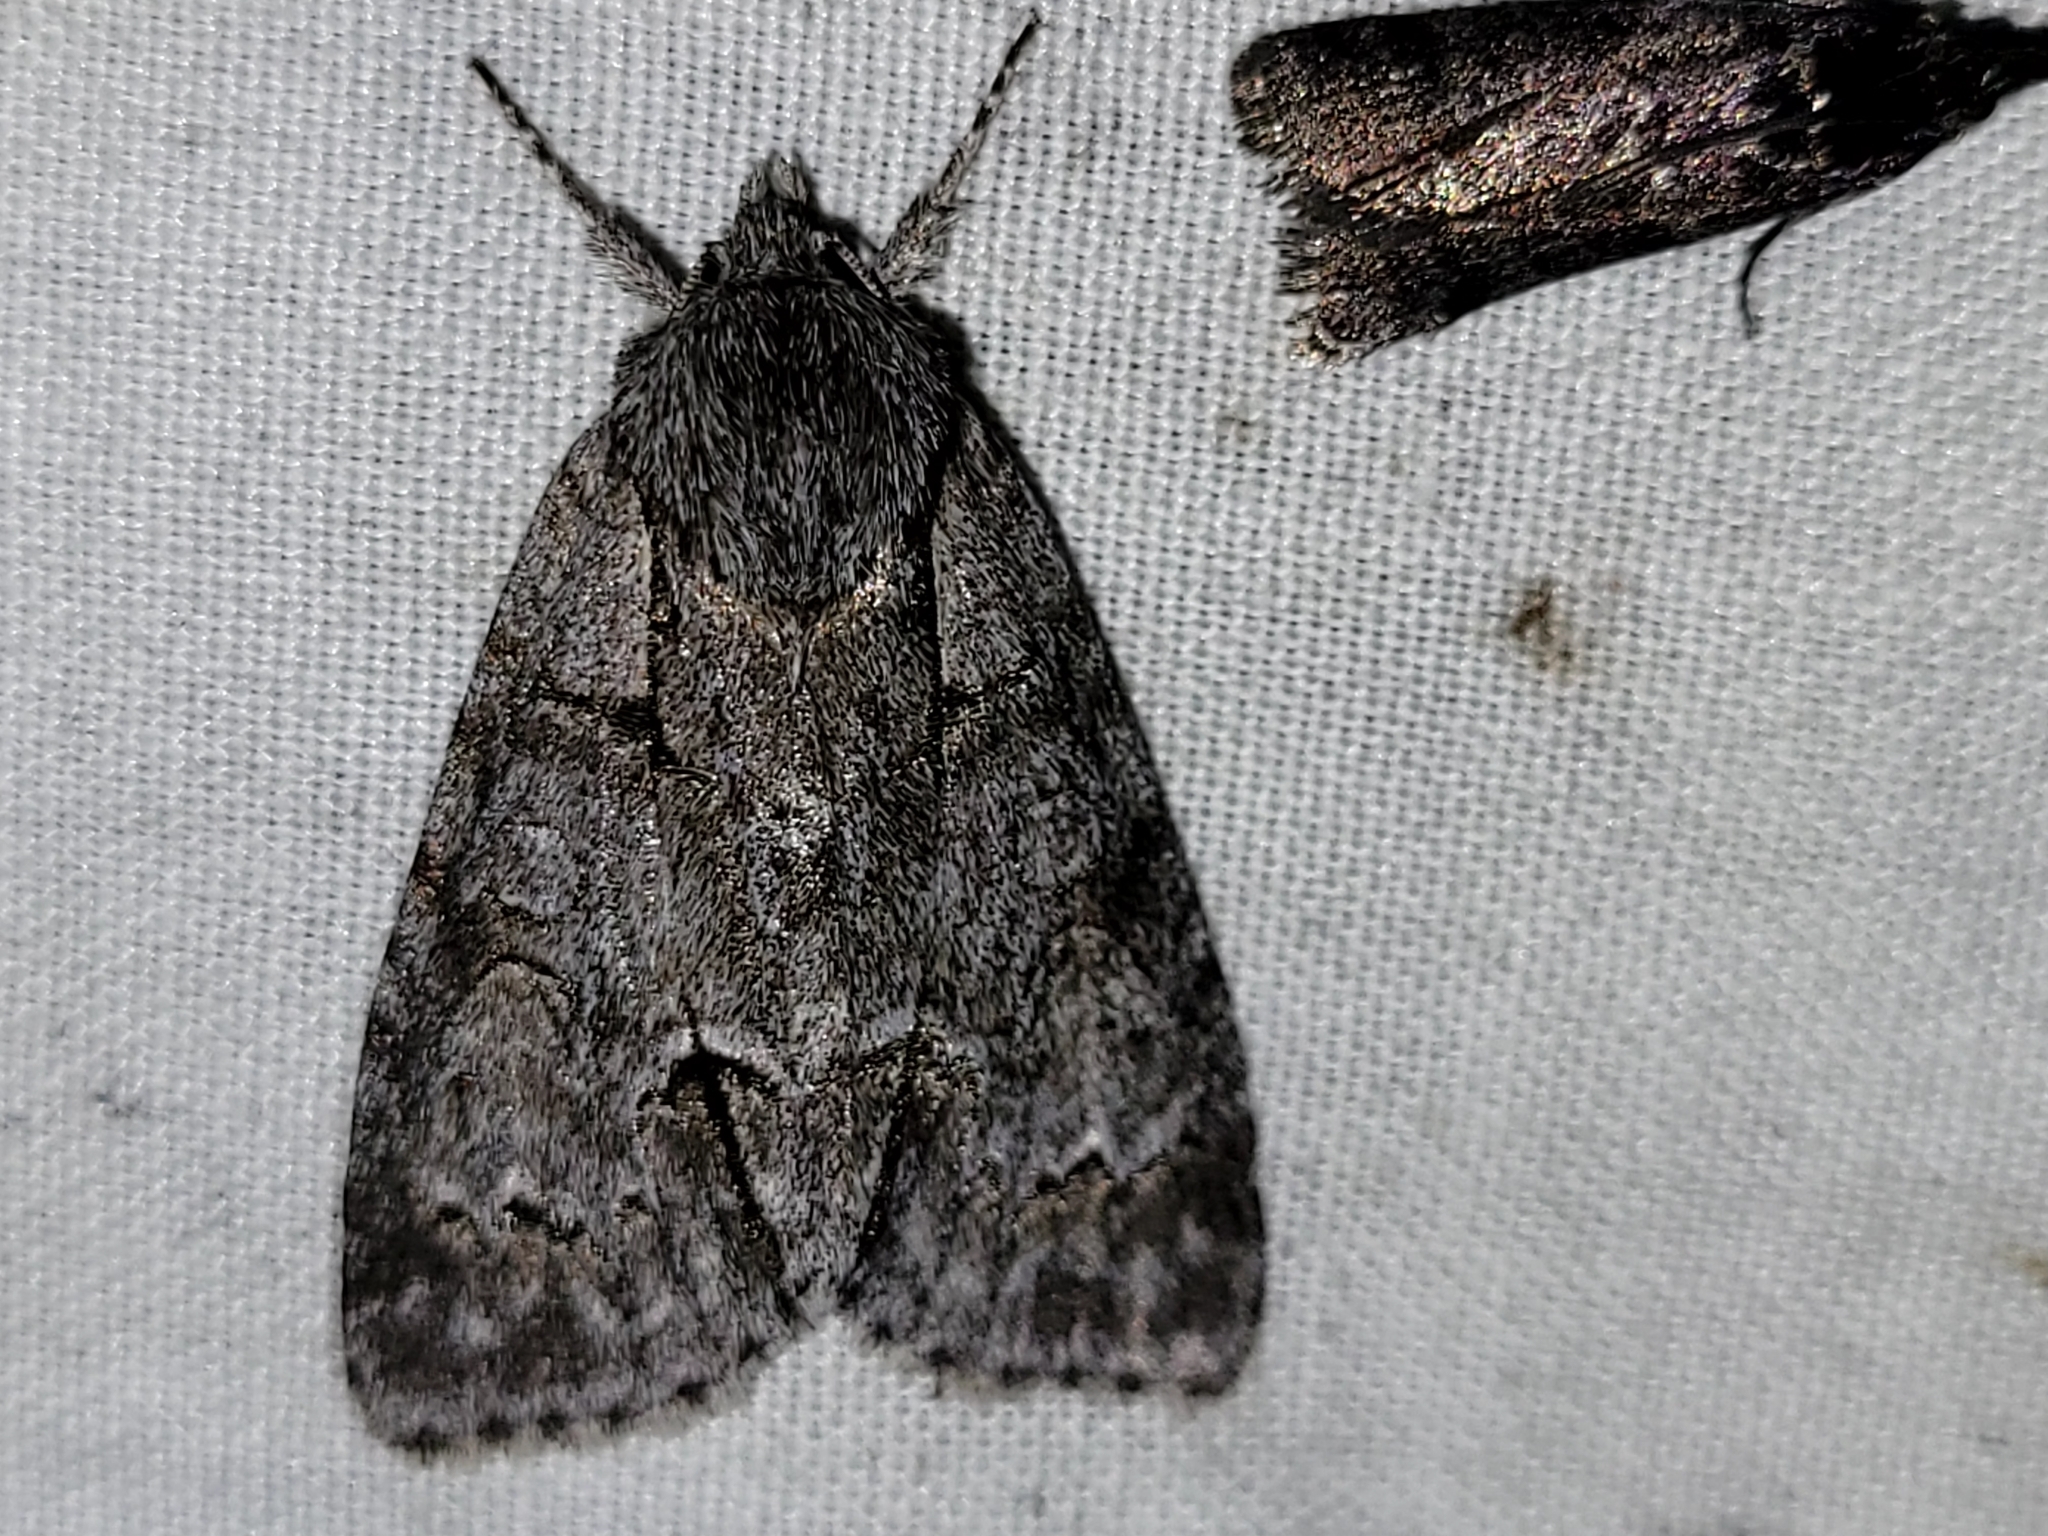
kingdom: Animalia
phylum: Arthropoda
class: Insecta
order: Lepidoptera
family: Noctuidae
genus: Acronicta
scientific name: Acronicta grisea
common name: Gray dagger
